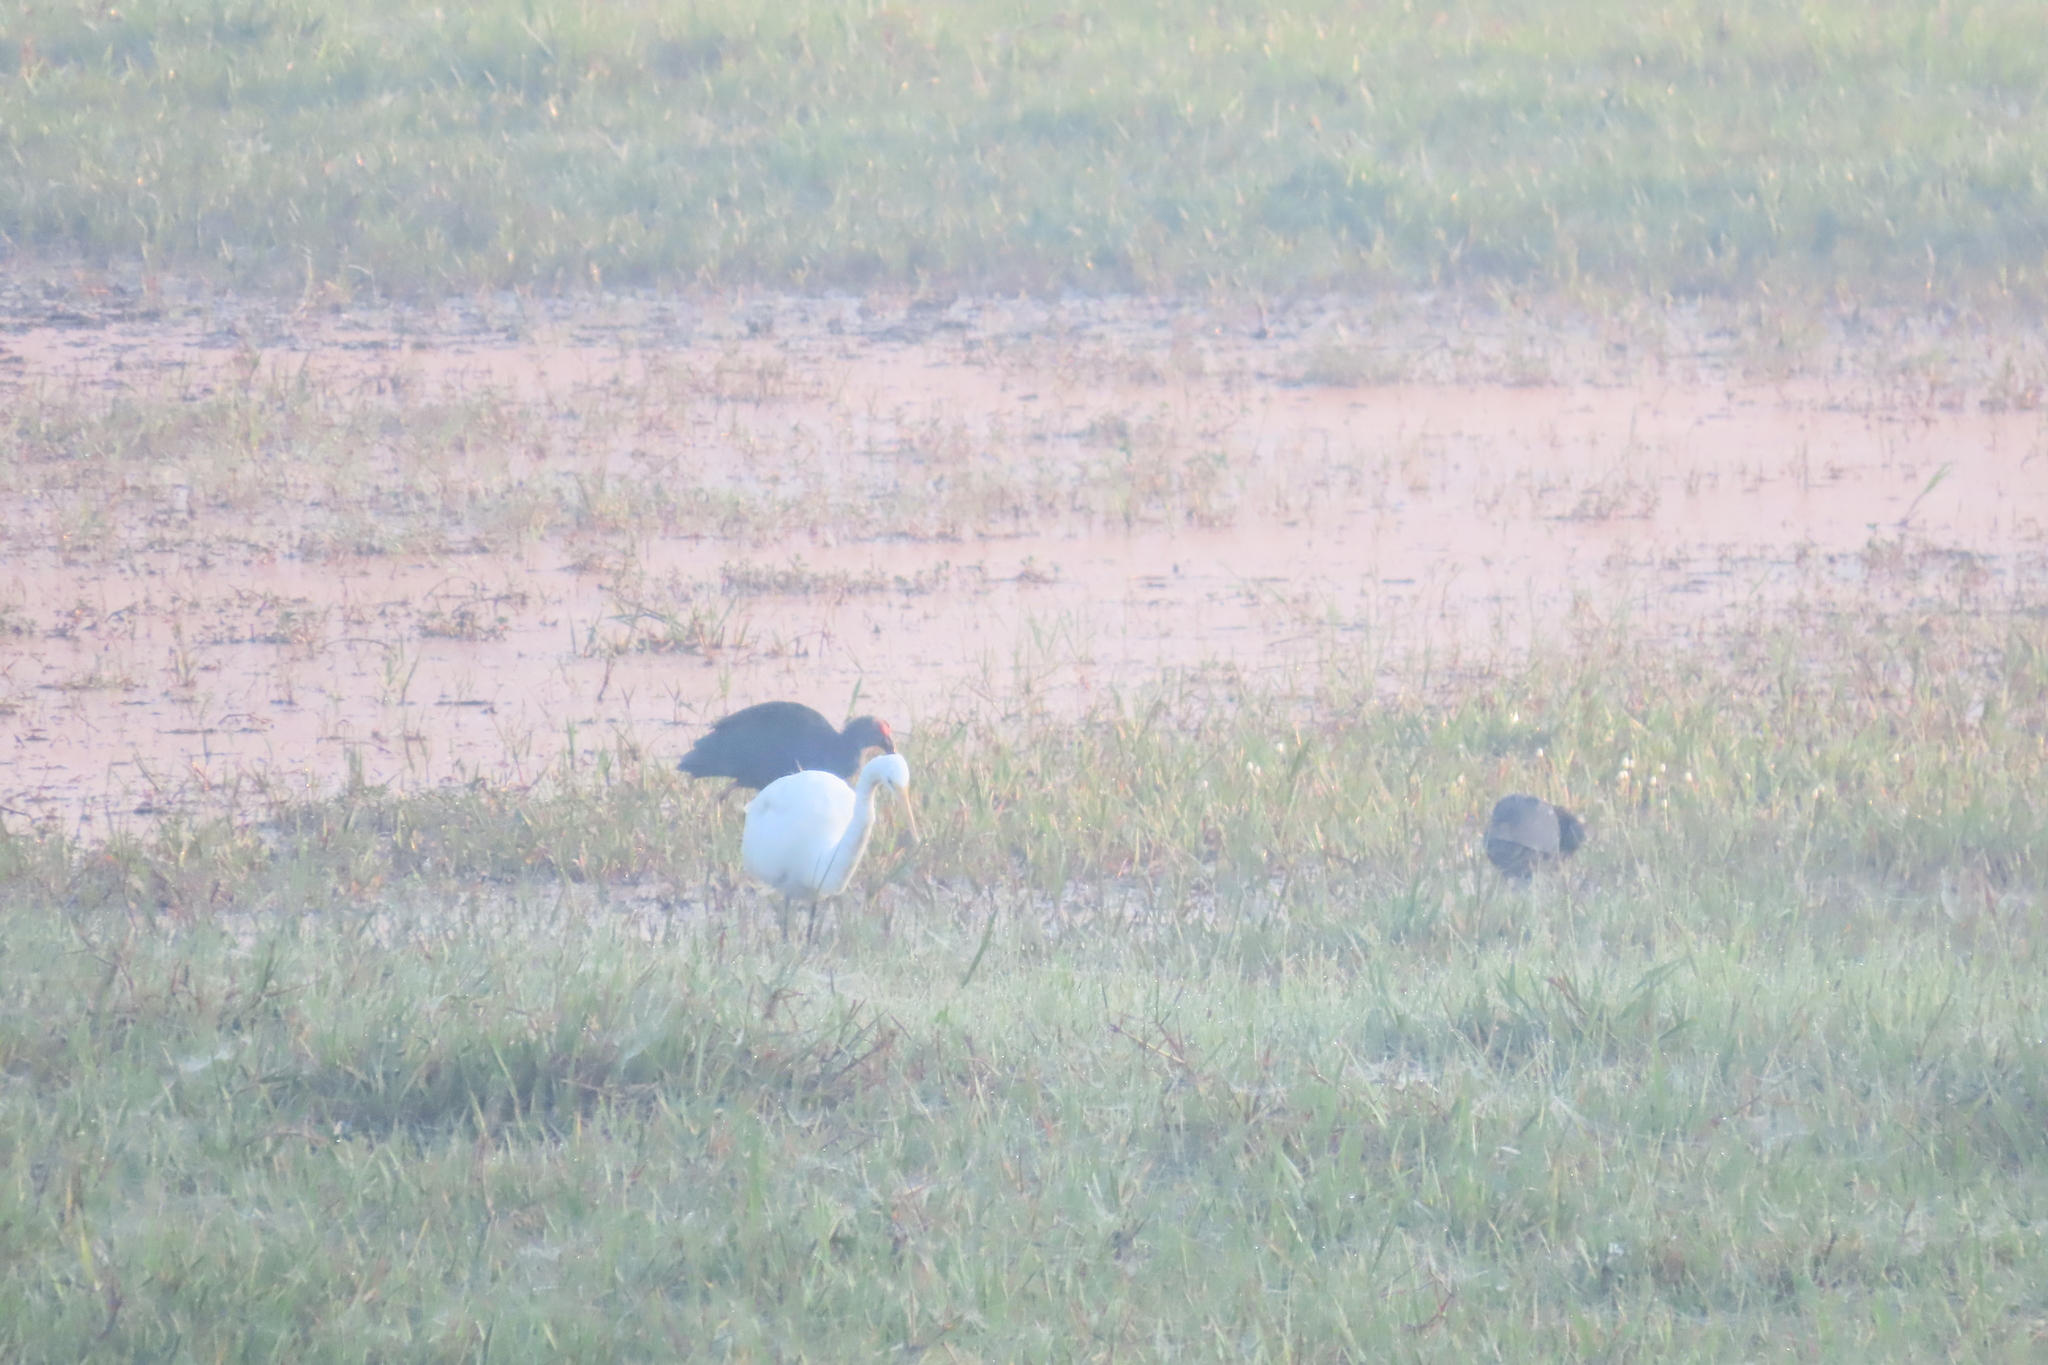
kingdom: Animalia
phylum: Chordata
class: Aves
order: Gruiformes
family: Rallidae
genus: Porphyrio
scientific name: Porphyrio porphyrio
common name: Purple swamphen
